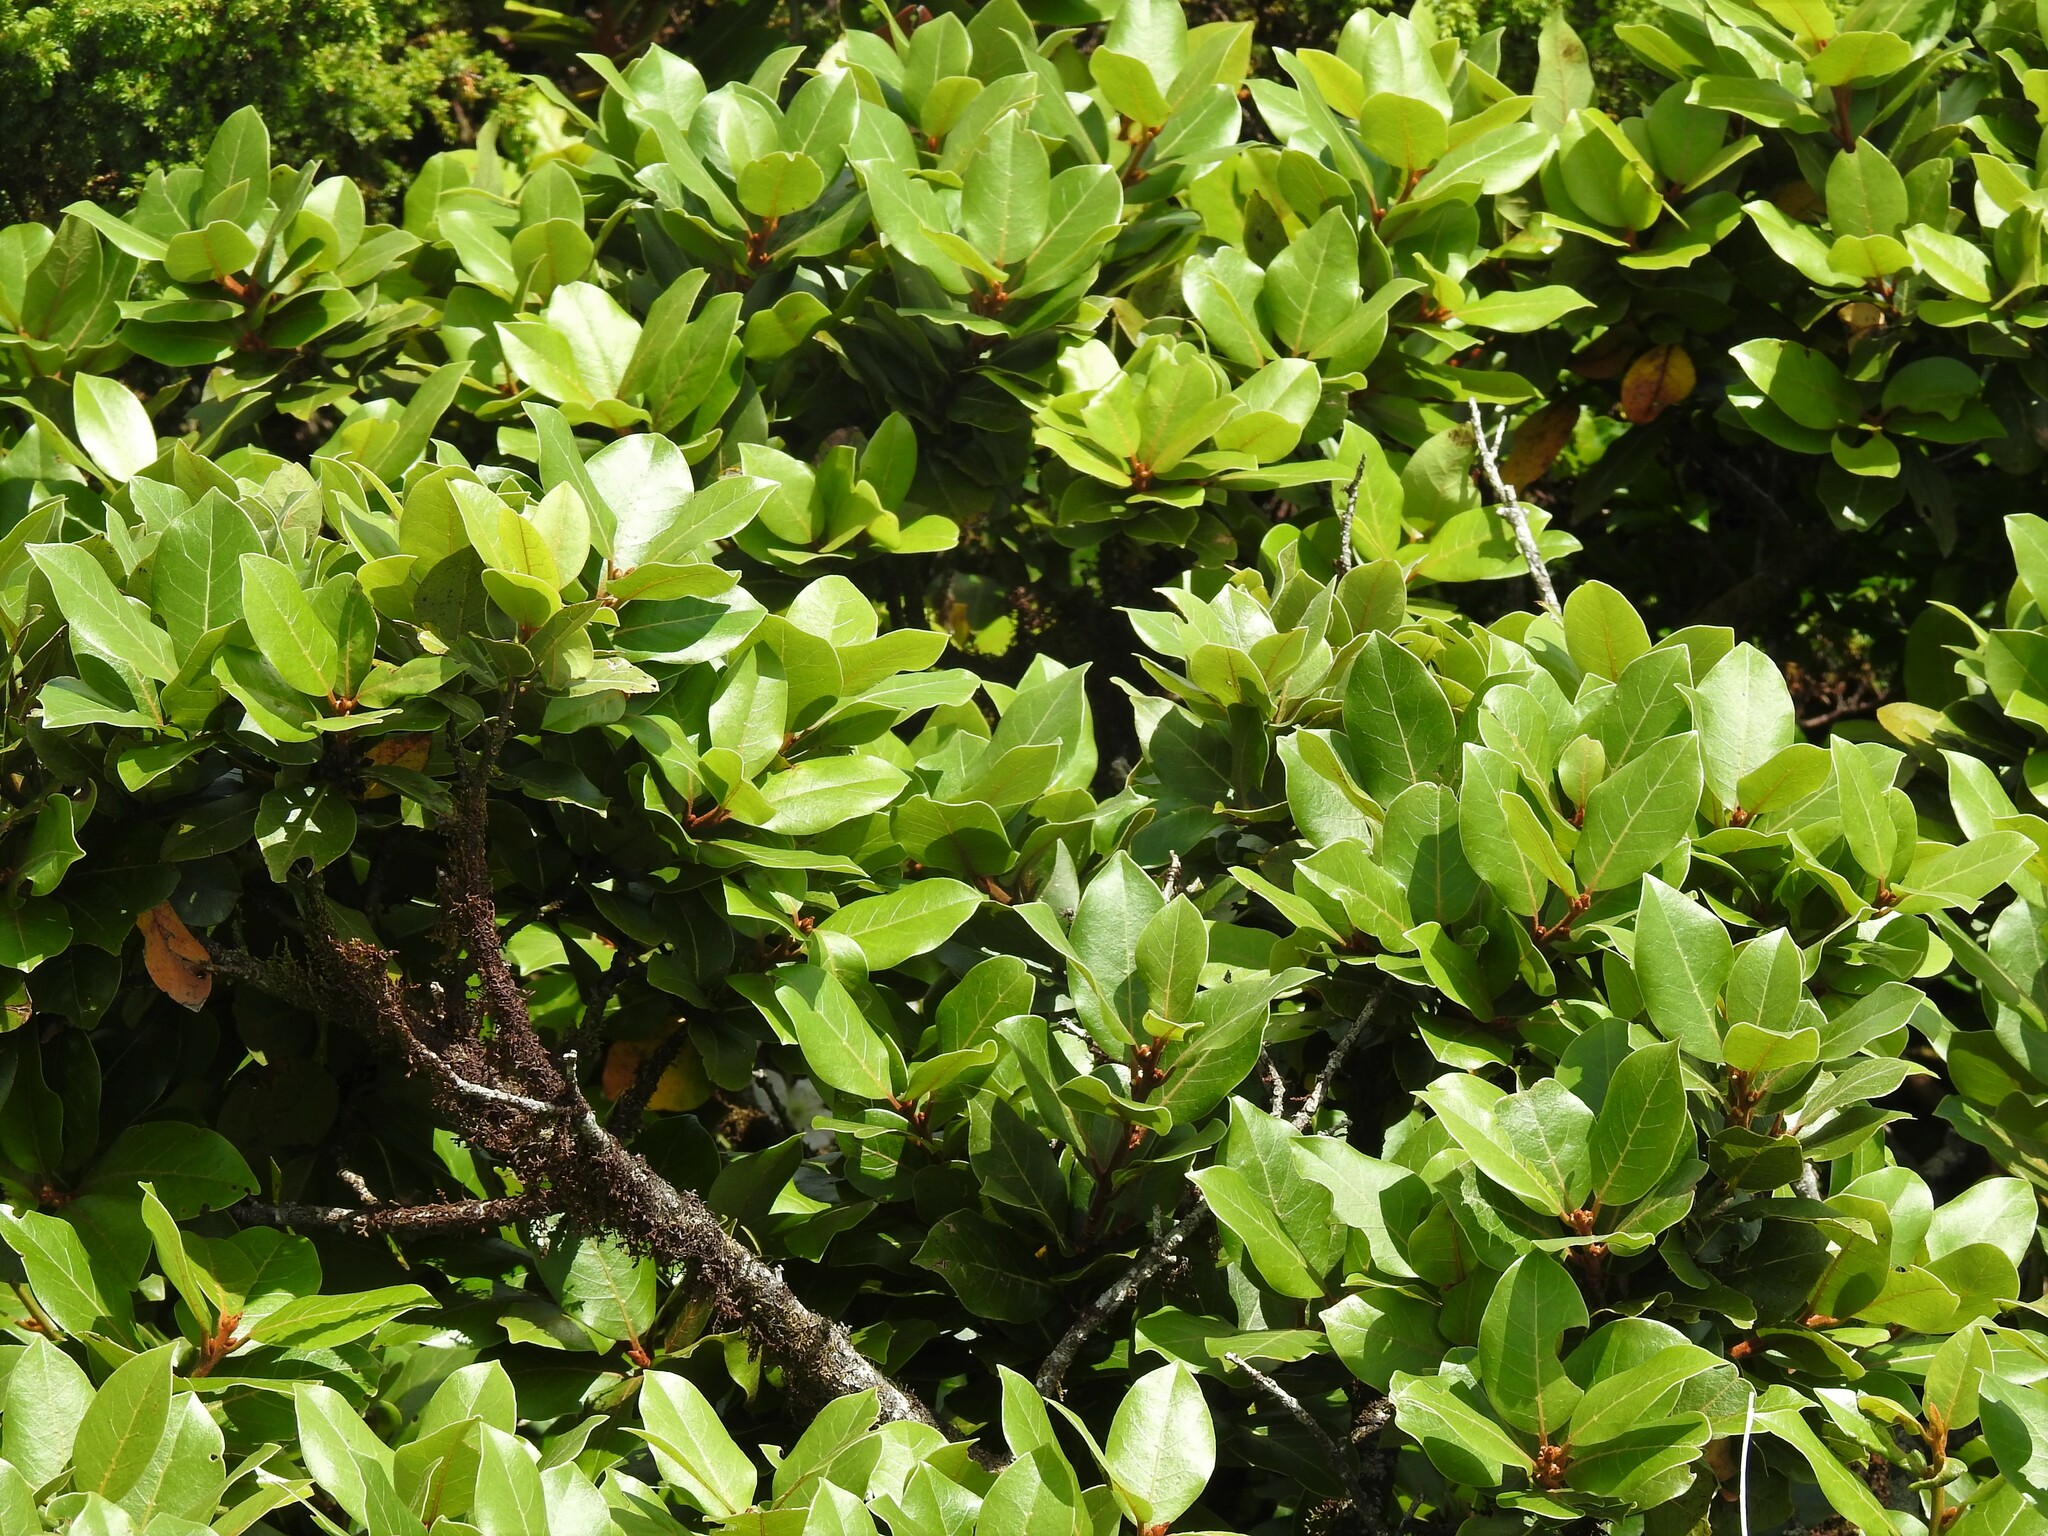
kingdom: Plantae
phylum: Tracheophyta
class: Magnoliopsida
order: Laurales
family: Lauraceae
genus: Laurus
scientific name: Laurus azorica
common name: Macaronesian laurel
